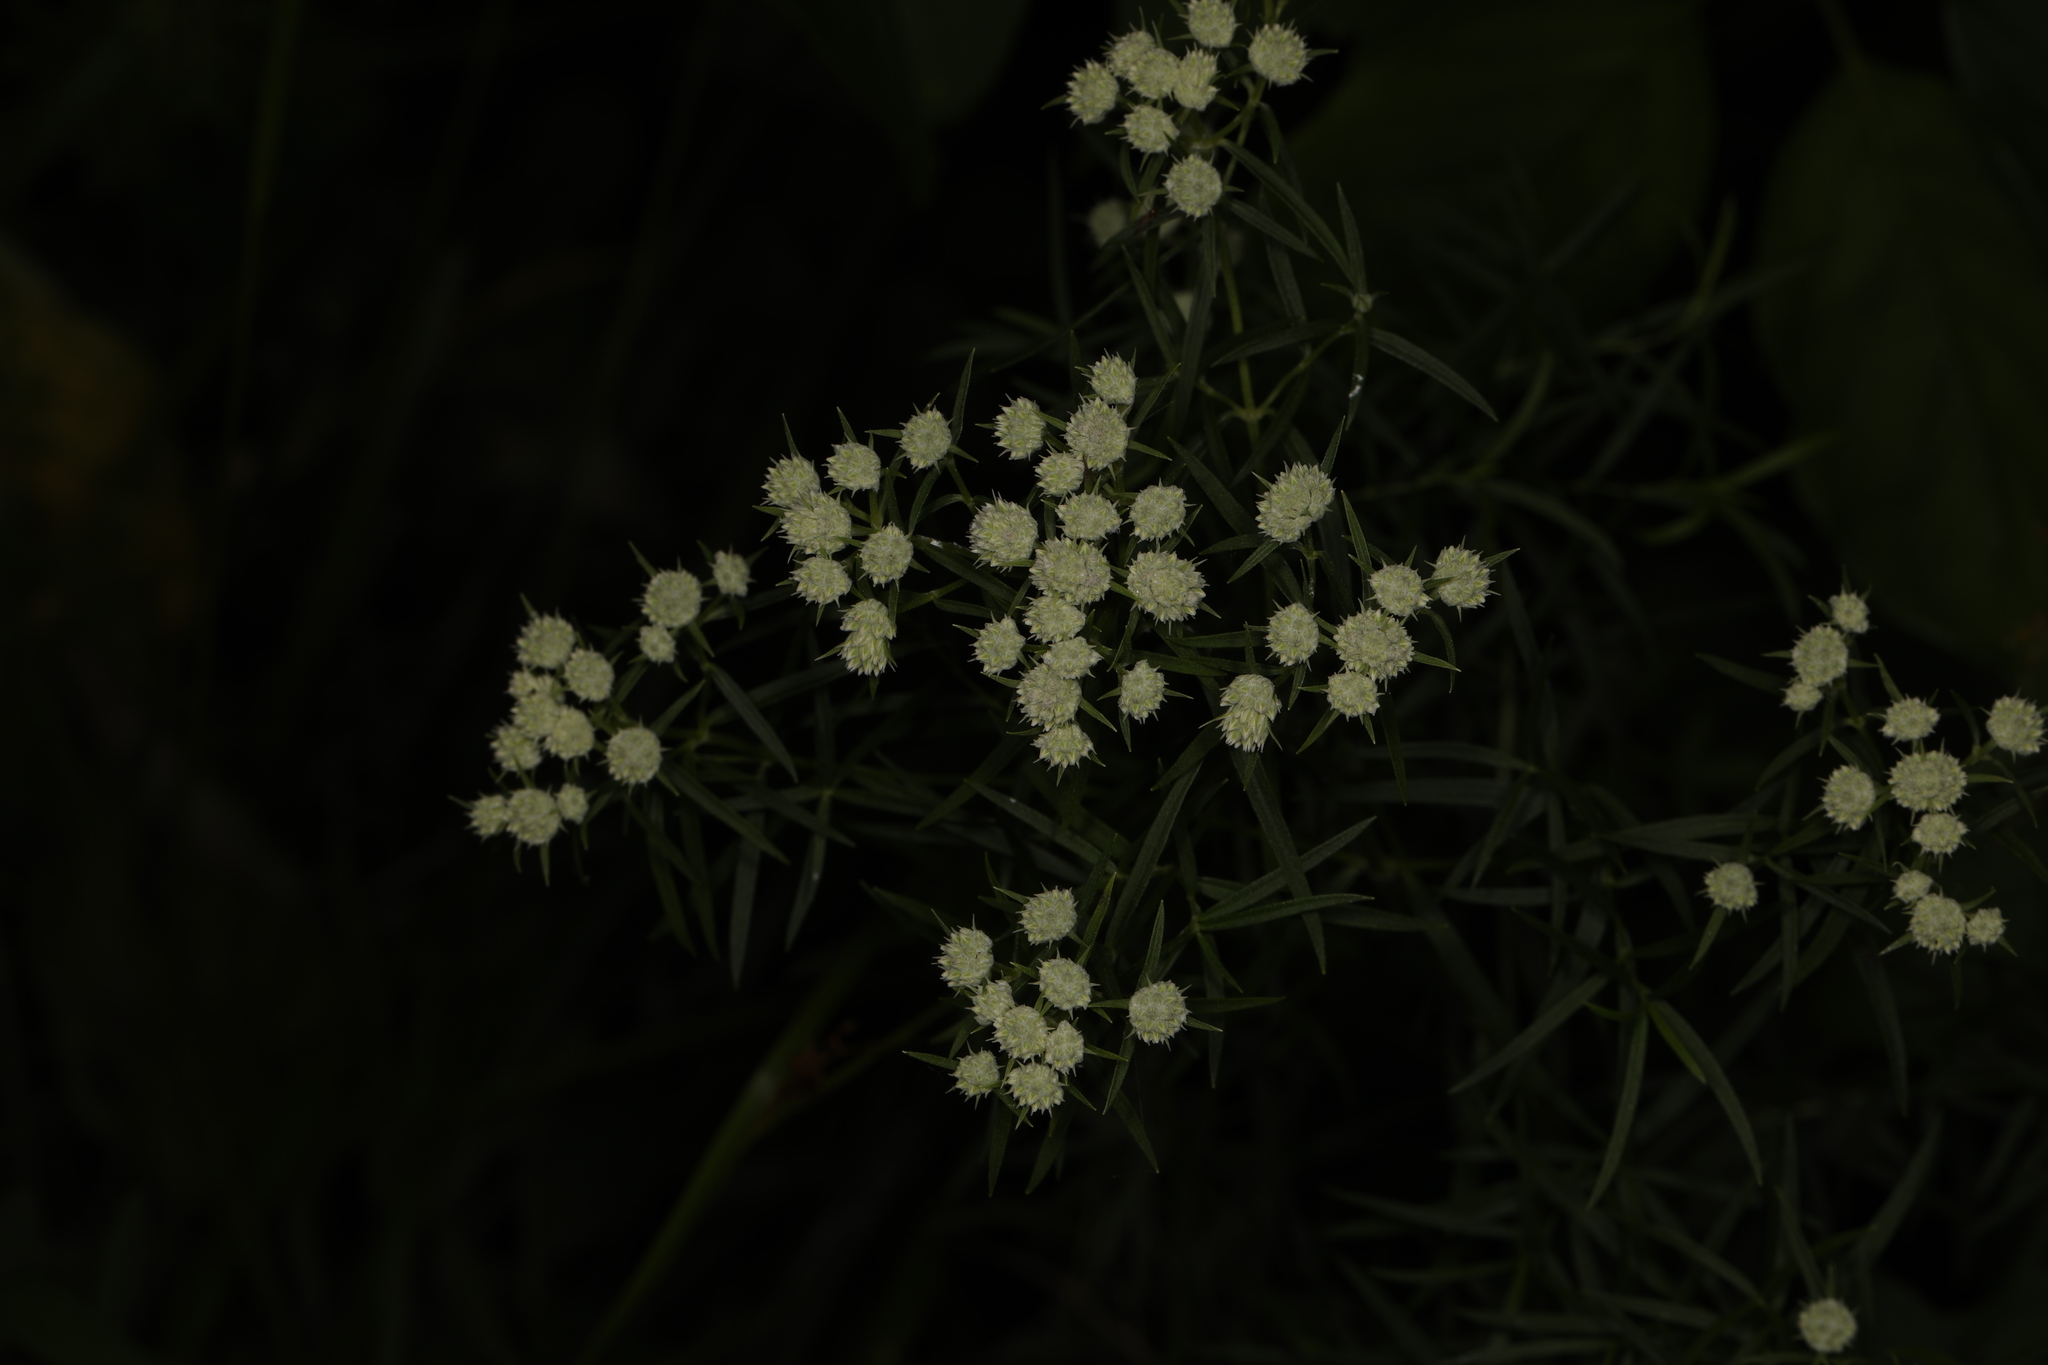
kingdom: Plantae
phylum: Tracheophyta
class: Magnoliopsida
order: Lamiales
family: Lamiaceae
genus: Pycnanthemum
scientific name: Pycnanthemum tenuifolium
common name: Narrow-leaf mountain-mint
